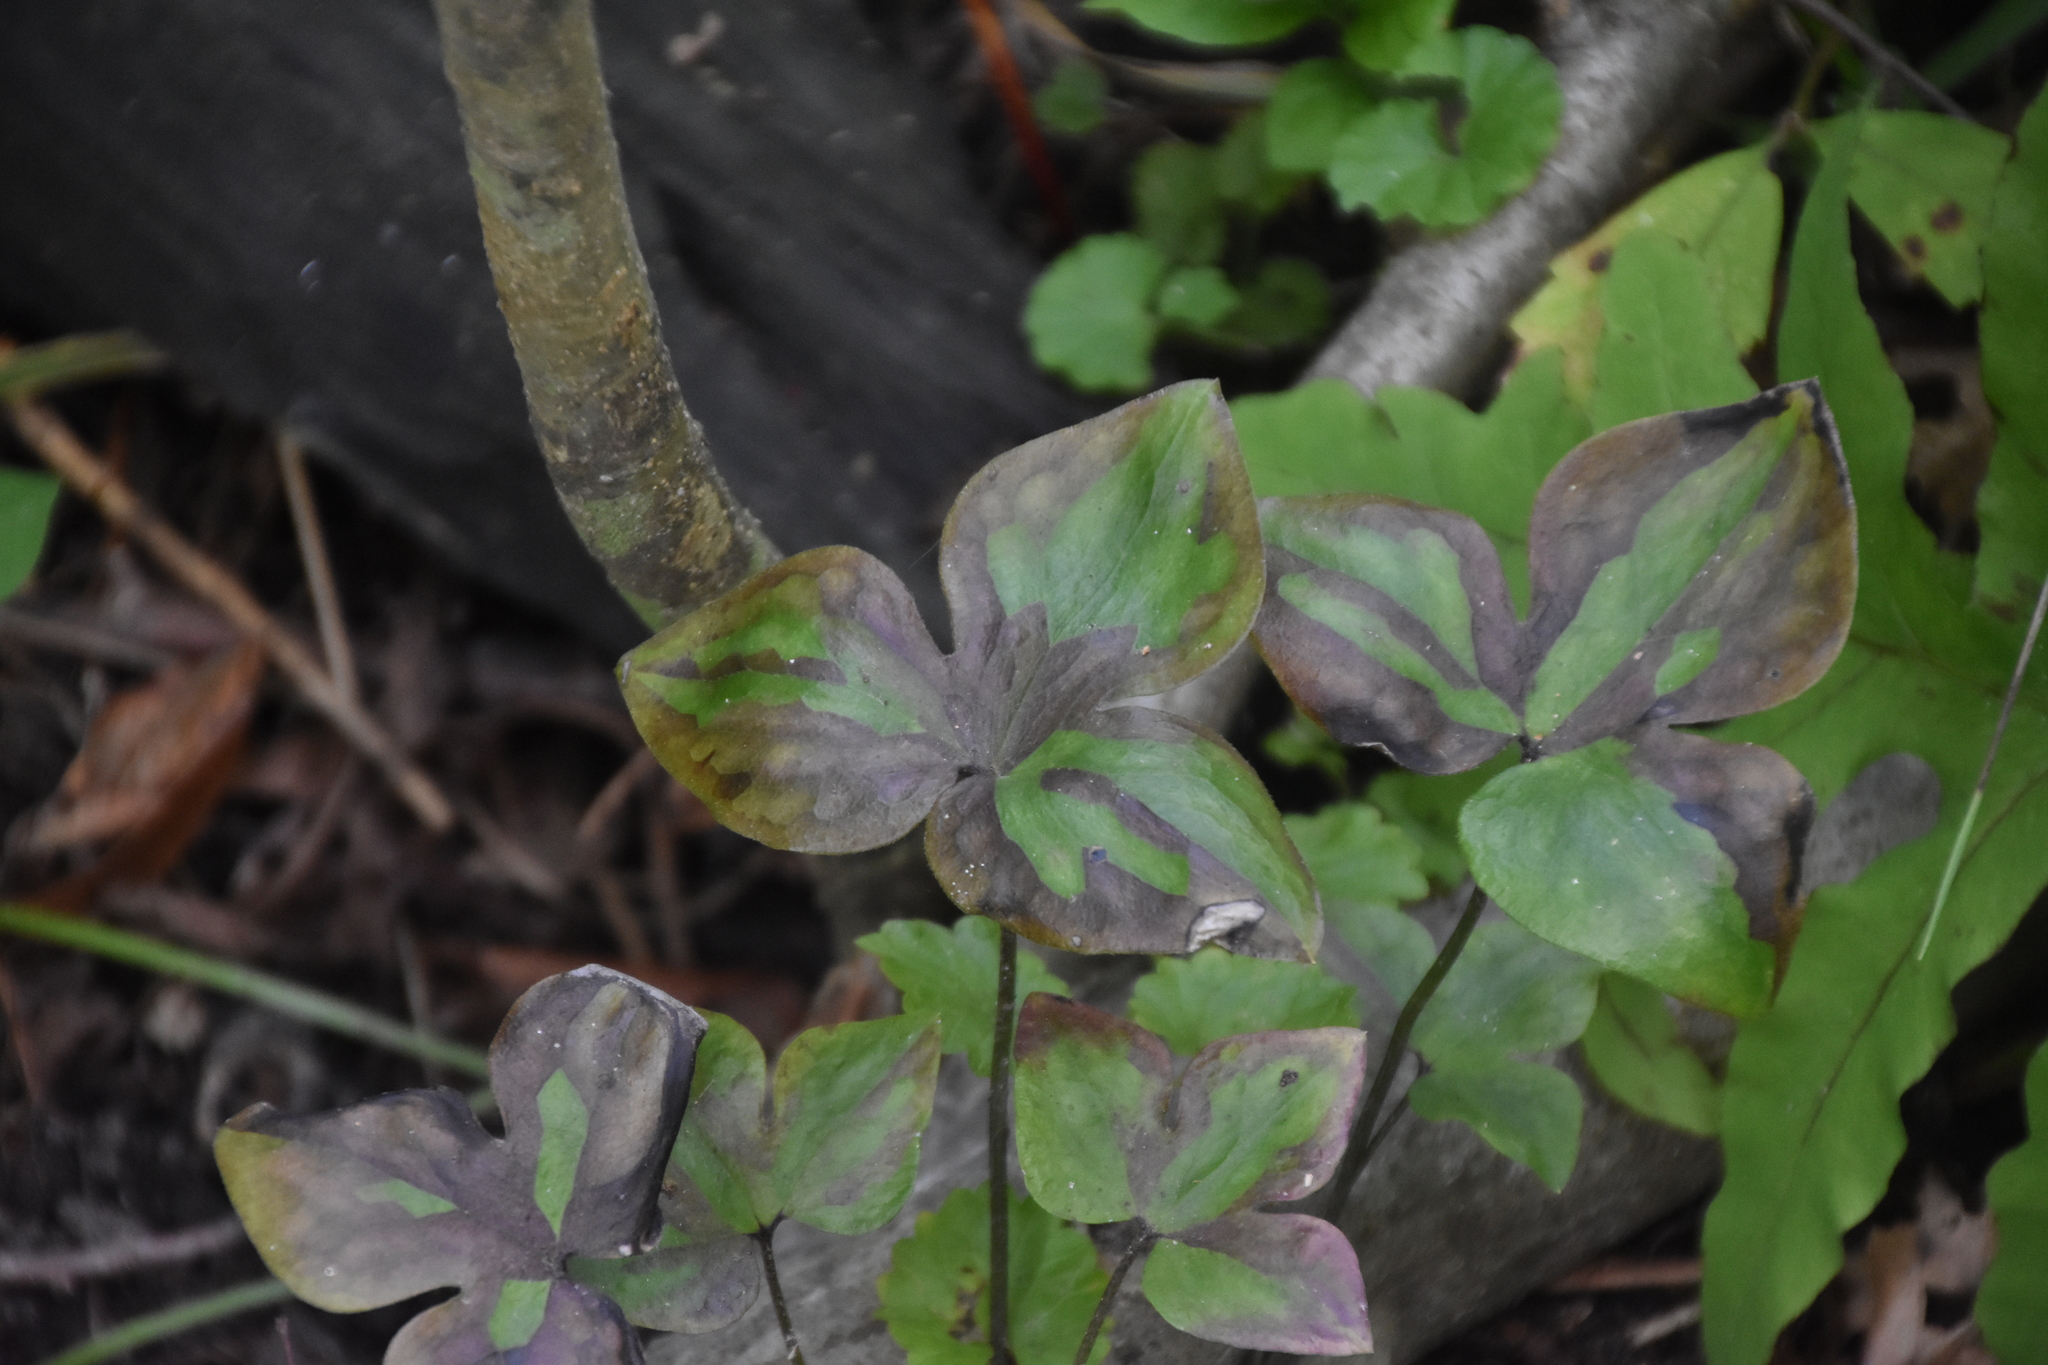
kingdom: Plantae
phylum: Tracheophyta
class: Magnoliopsida
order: Ranunculales
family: Ranunculaceae
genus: Hepatica
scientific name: Hepatica acutiloba
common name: Sharp-lobed hepatica
